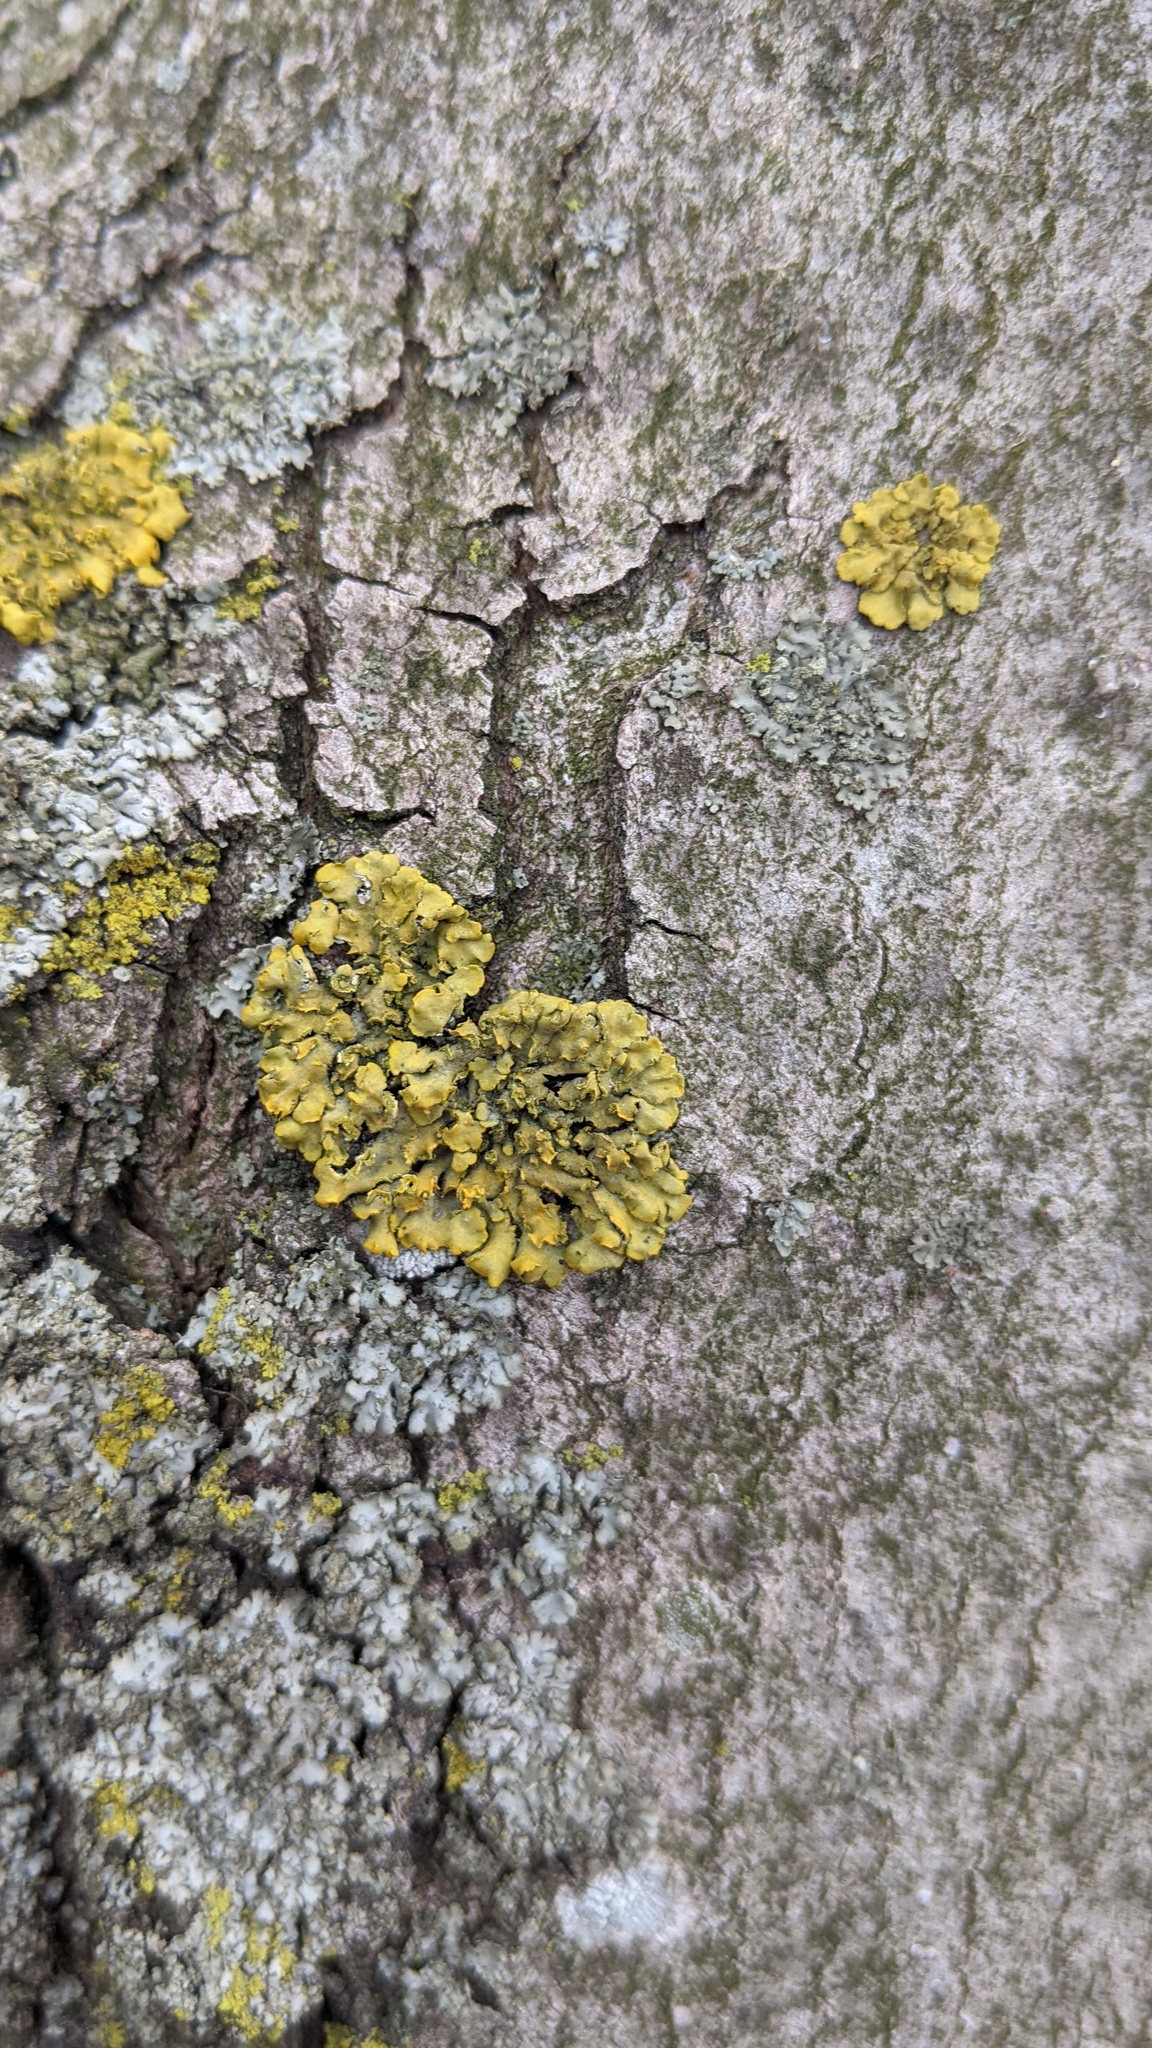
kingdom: Fungi
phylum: Ascomycota
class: Lecanoromycetes
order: Teloschistales
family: Teloschistaceae
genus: Oxneria
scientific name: Oxneria fallax
